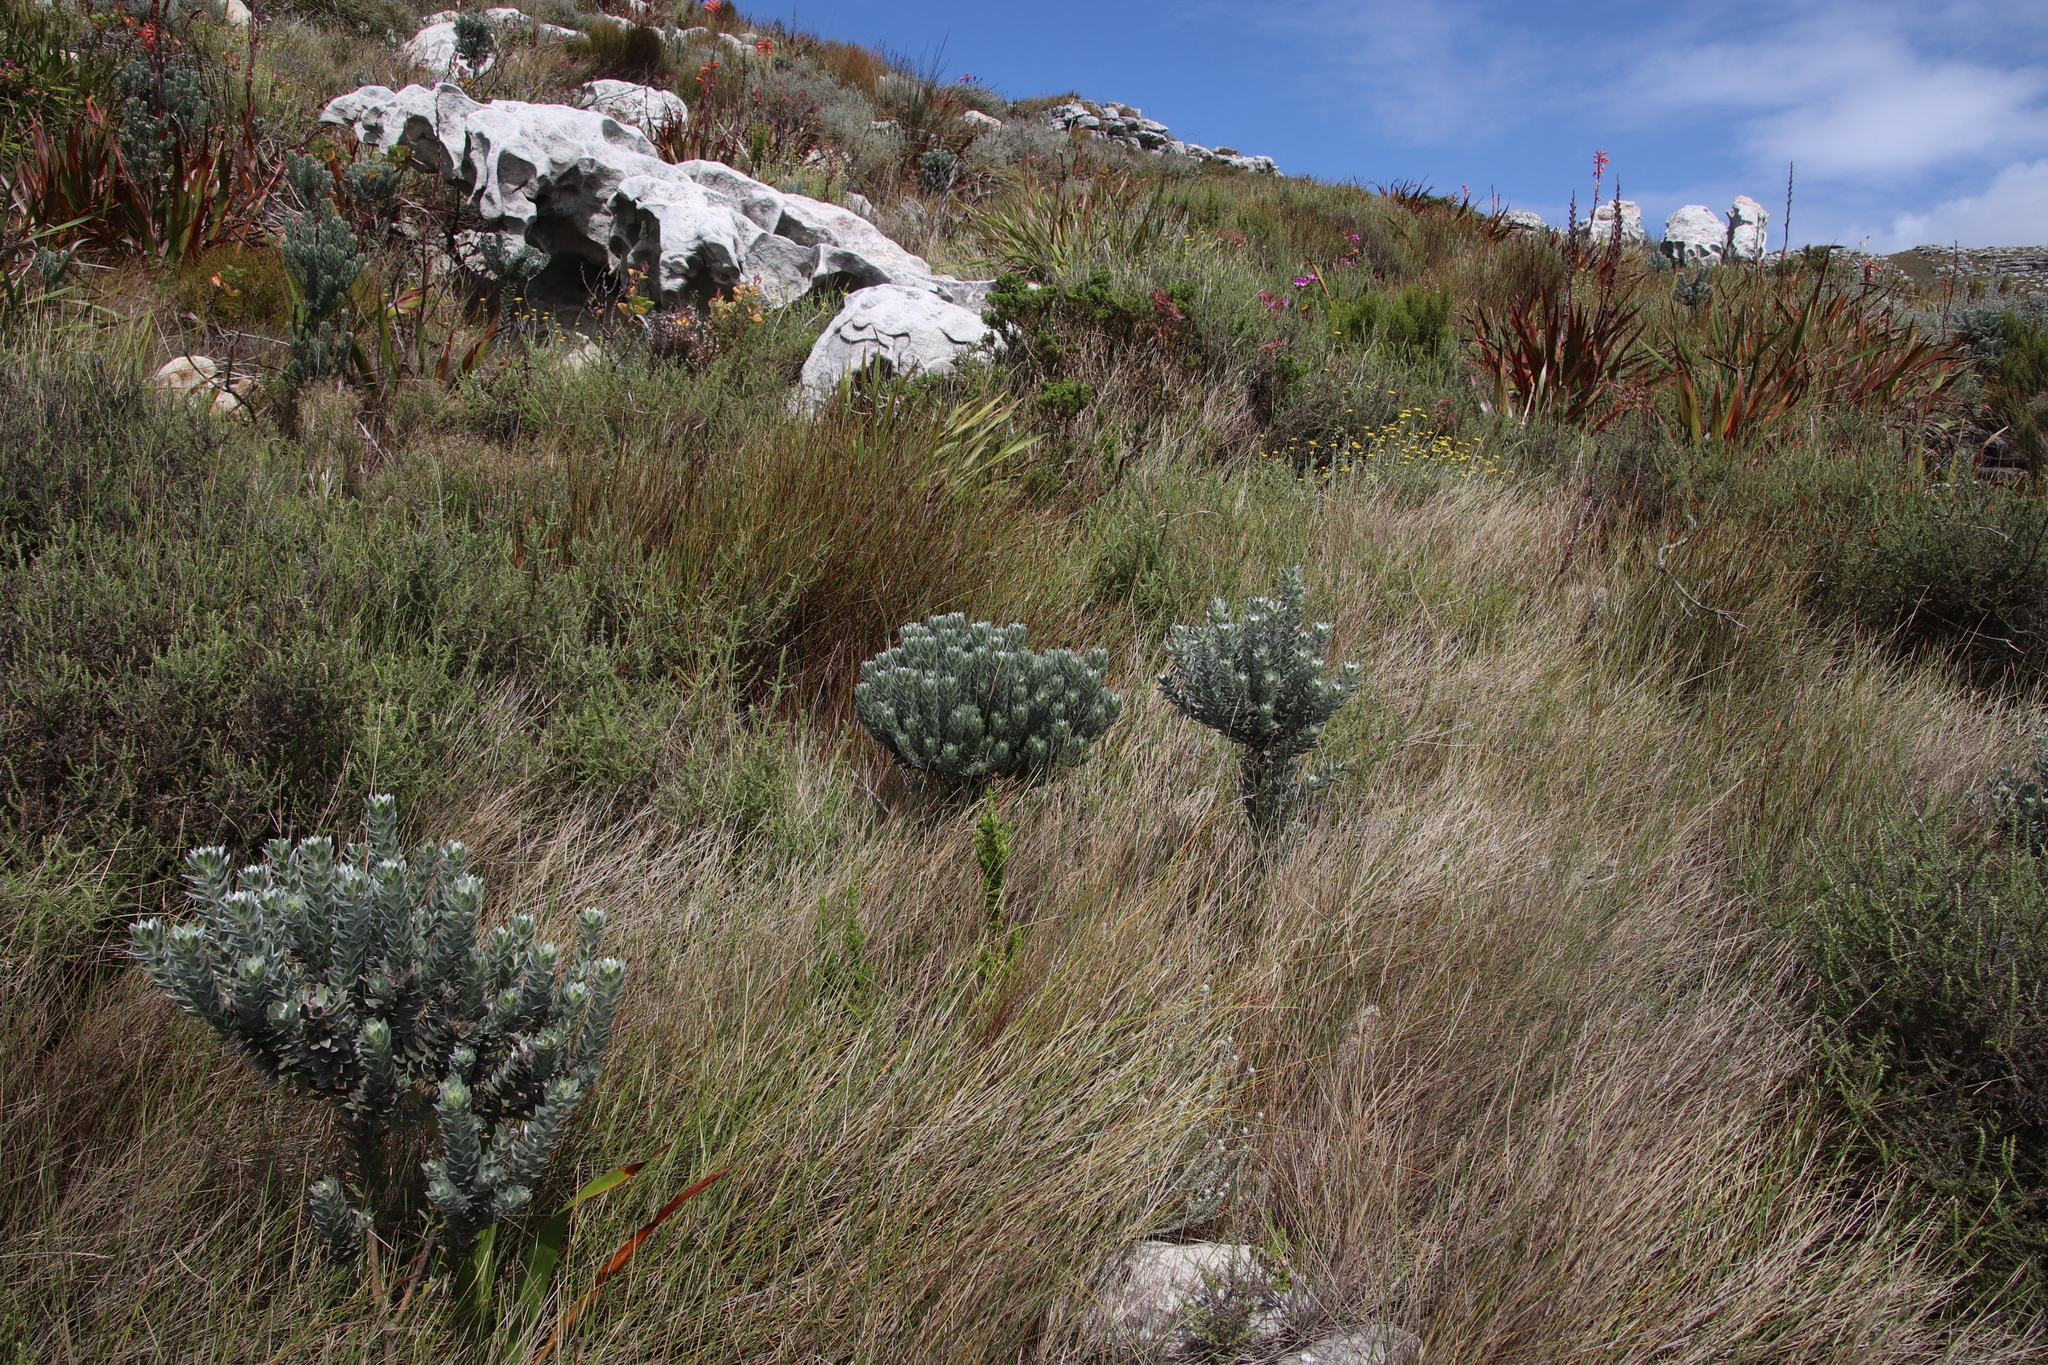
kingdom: Plantae
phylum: Tracheophyta
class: Magnoliopsida
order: Fabales
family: Fabaceae
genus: Xiphotheca
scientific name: Xiphotheca fruticosa
